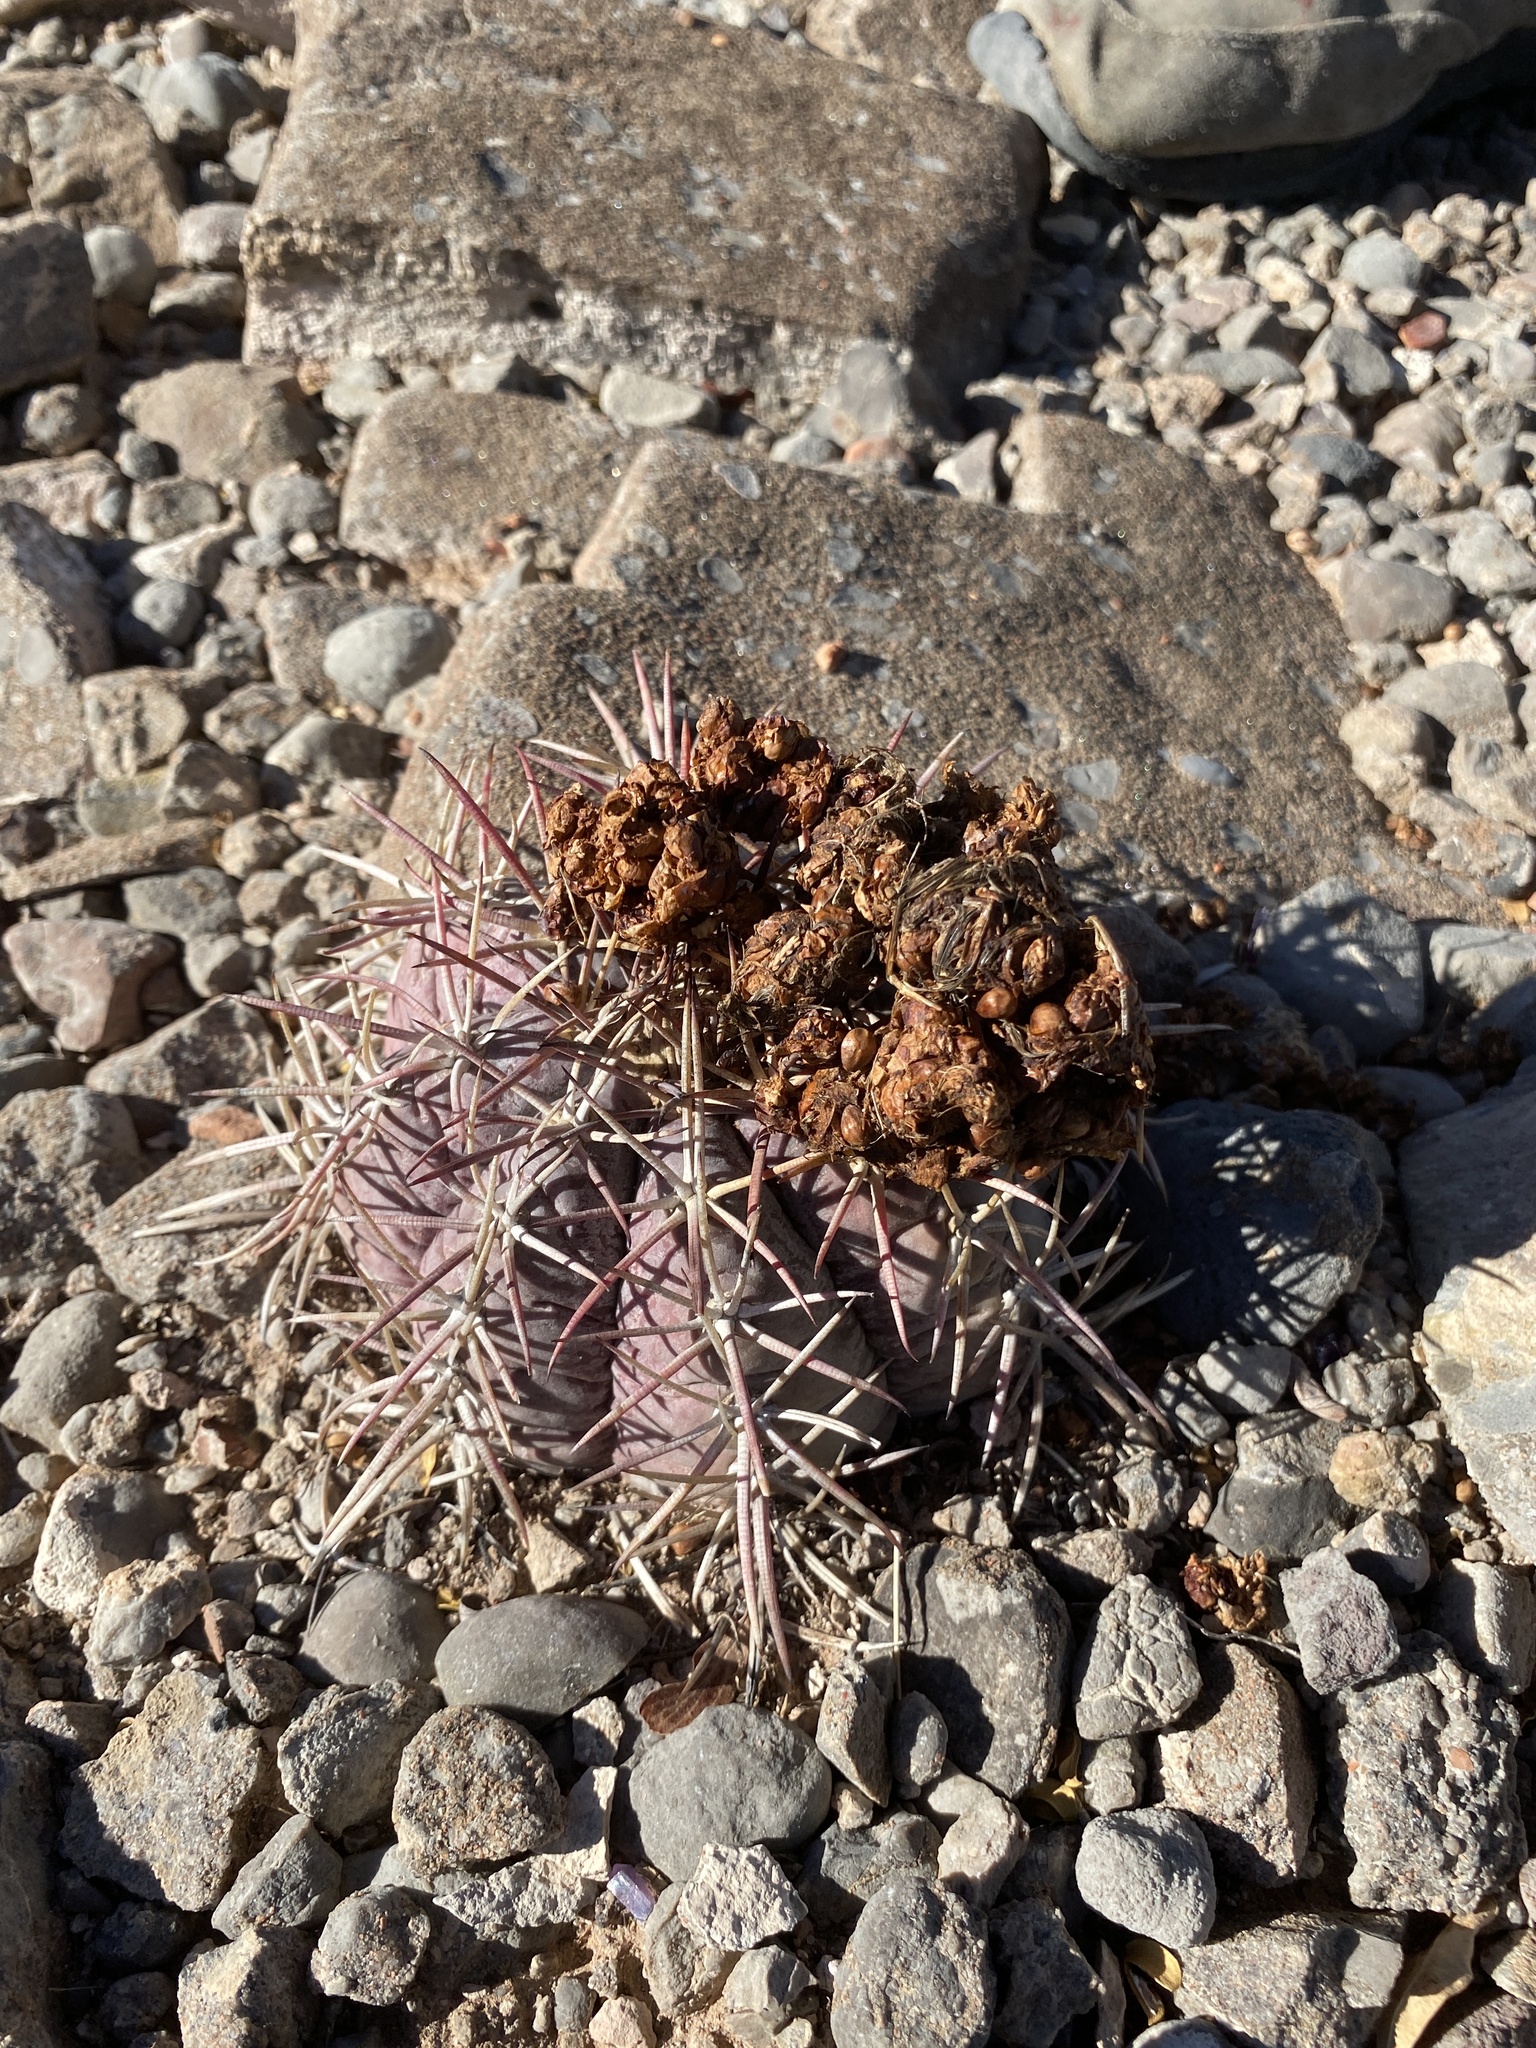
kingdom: Plantae
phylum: Tracheophyta
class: Magnoliopsida
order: Caryophyllales
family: Cactaceae
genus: Echinocactus
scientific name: Echinocactus horizonthalonius
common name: Devilshead
